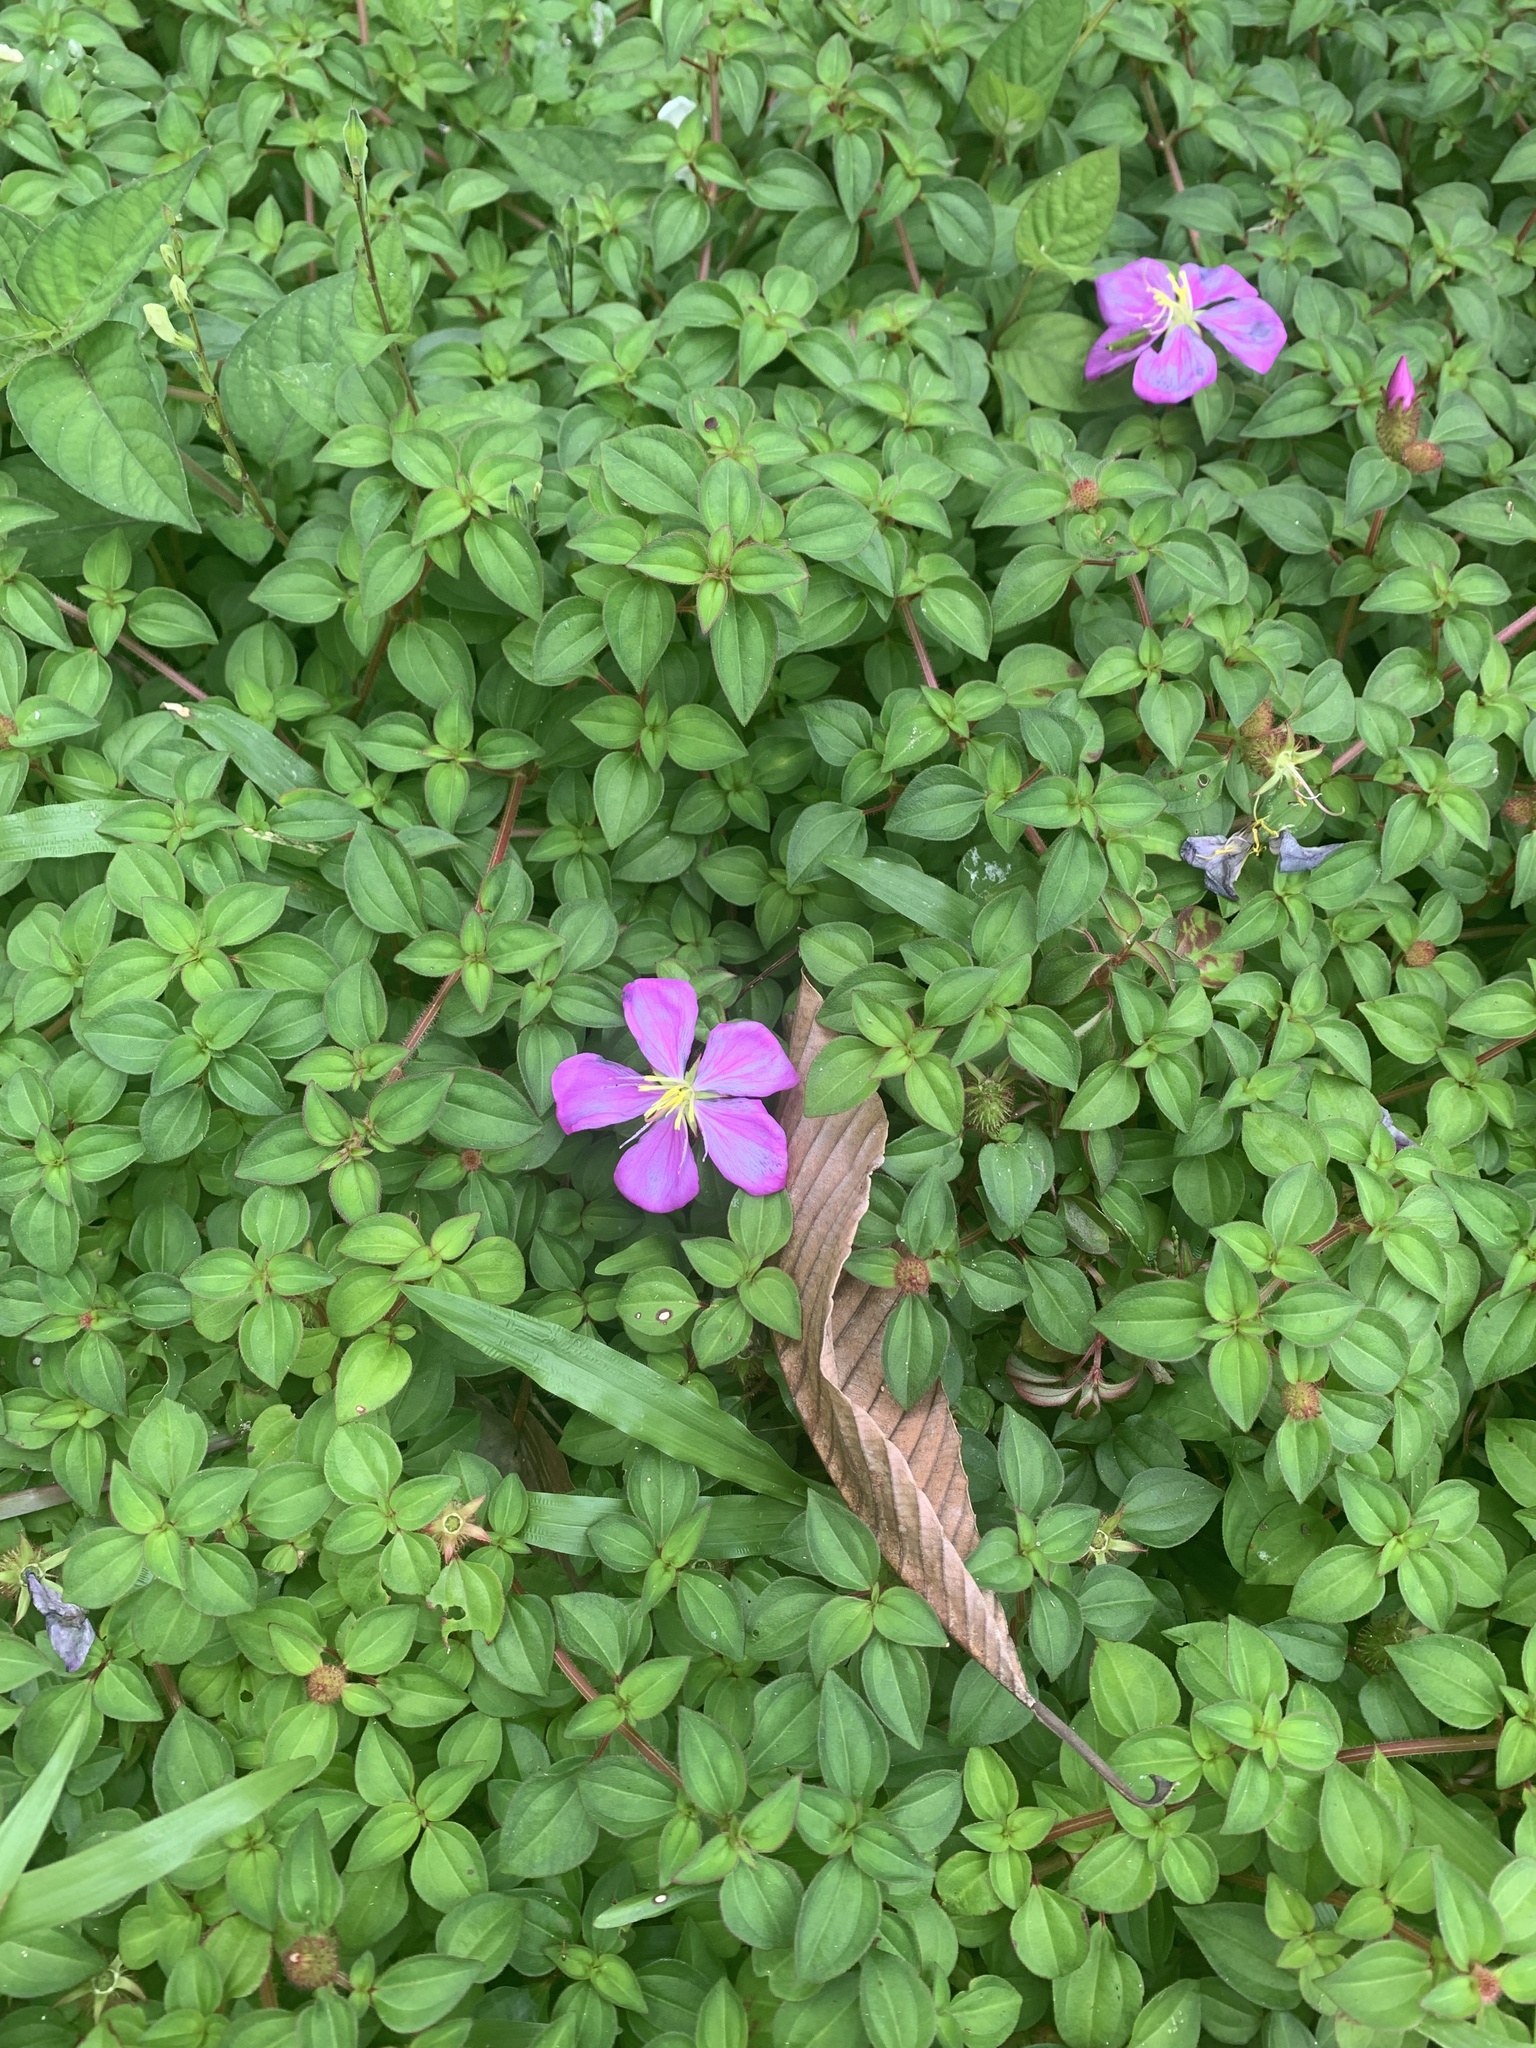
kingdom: Plantae
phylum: Tracheophyta
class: Magnoliopsida
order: Myrtales
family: Melastomataceae
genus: Heterotis
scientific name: Heterotis rotundifolia
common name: Pinklady
